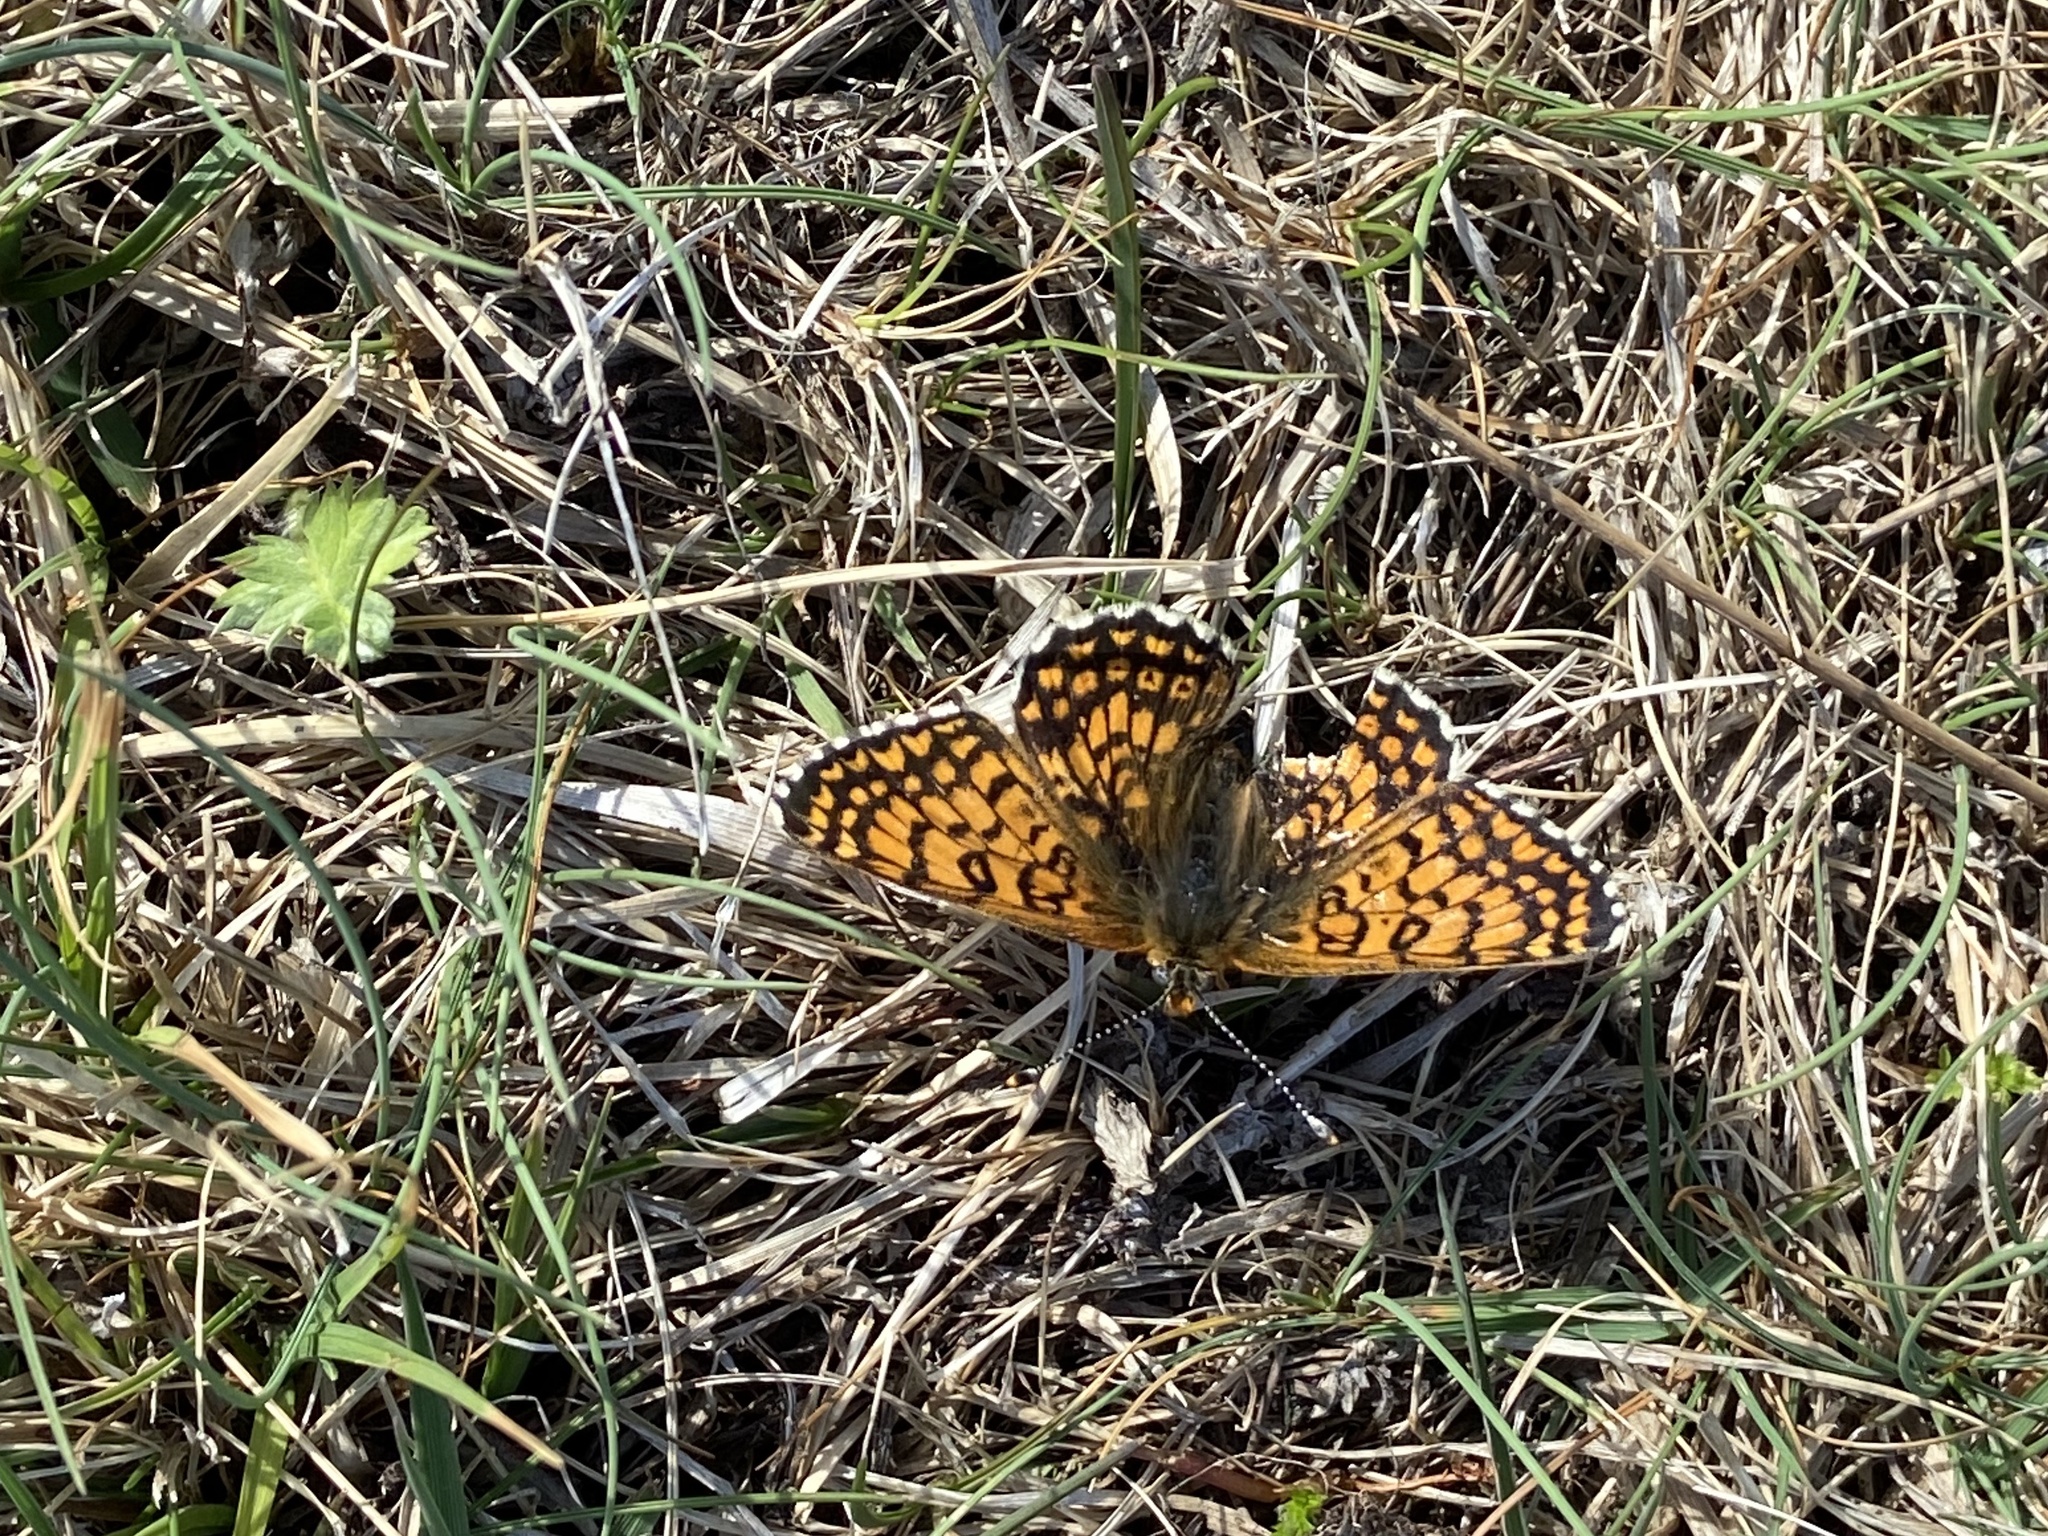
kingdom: Animalia
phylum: Arthropoda
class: Insecta
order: Lepidoptera
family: Nymphalidae
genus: Melitaea
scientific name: Melitaea cinxia
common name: Glanville fritillary
